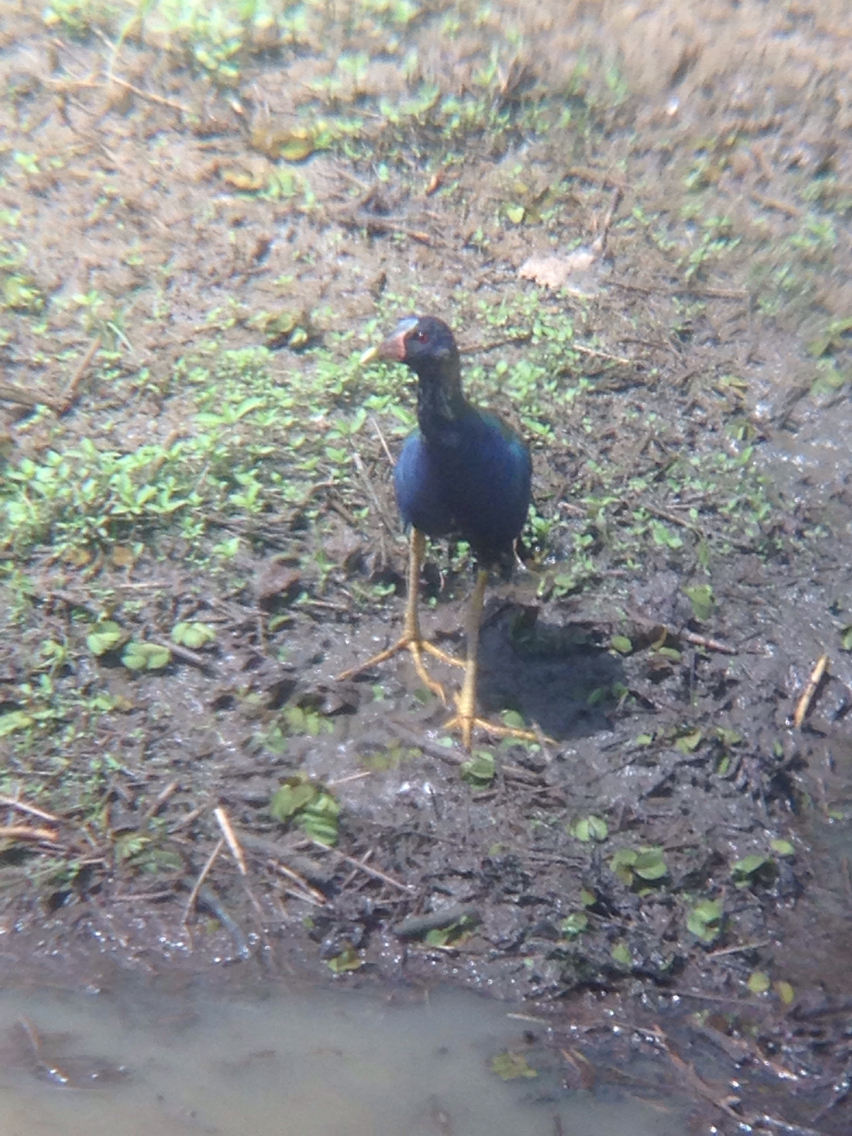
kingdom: Animalia
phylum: Chordata
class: Aves
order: Gruiformes
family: Rallidae
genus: Porphyrio
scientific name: Porphyrio martinica
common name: Purple gallinule
